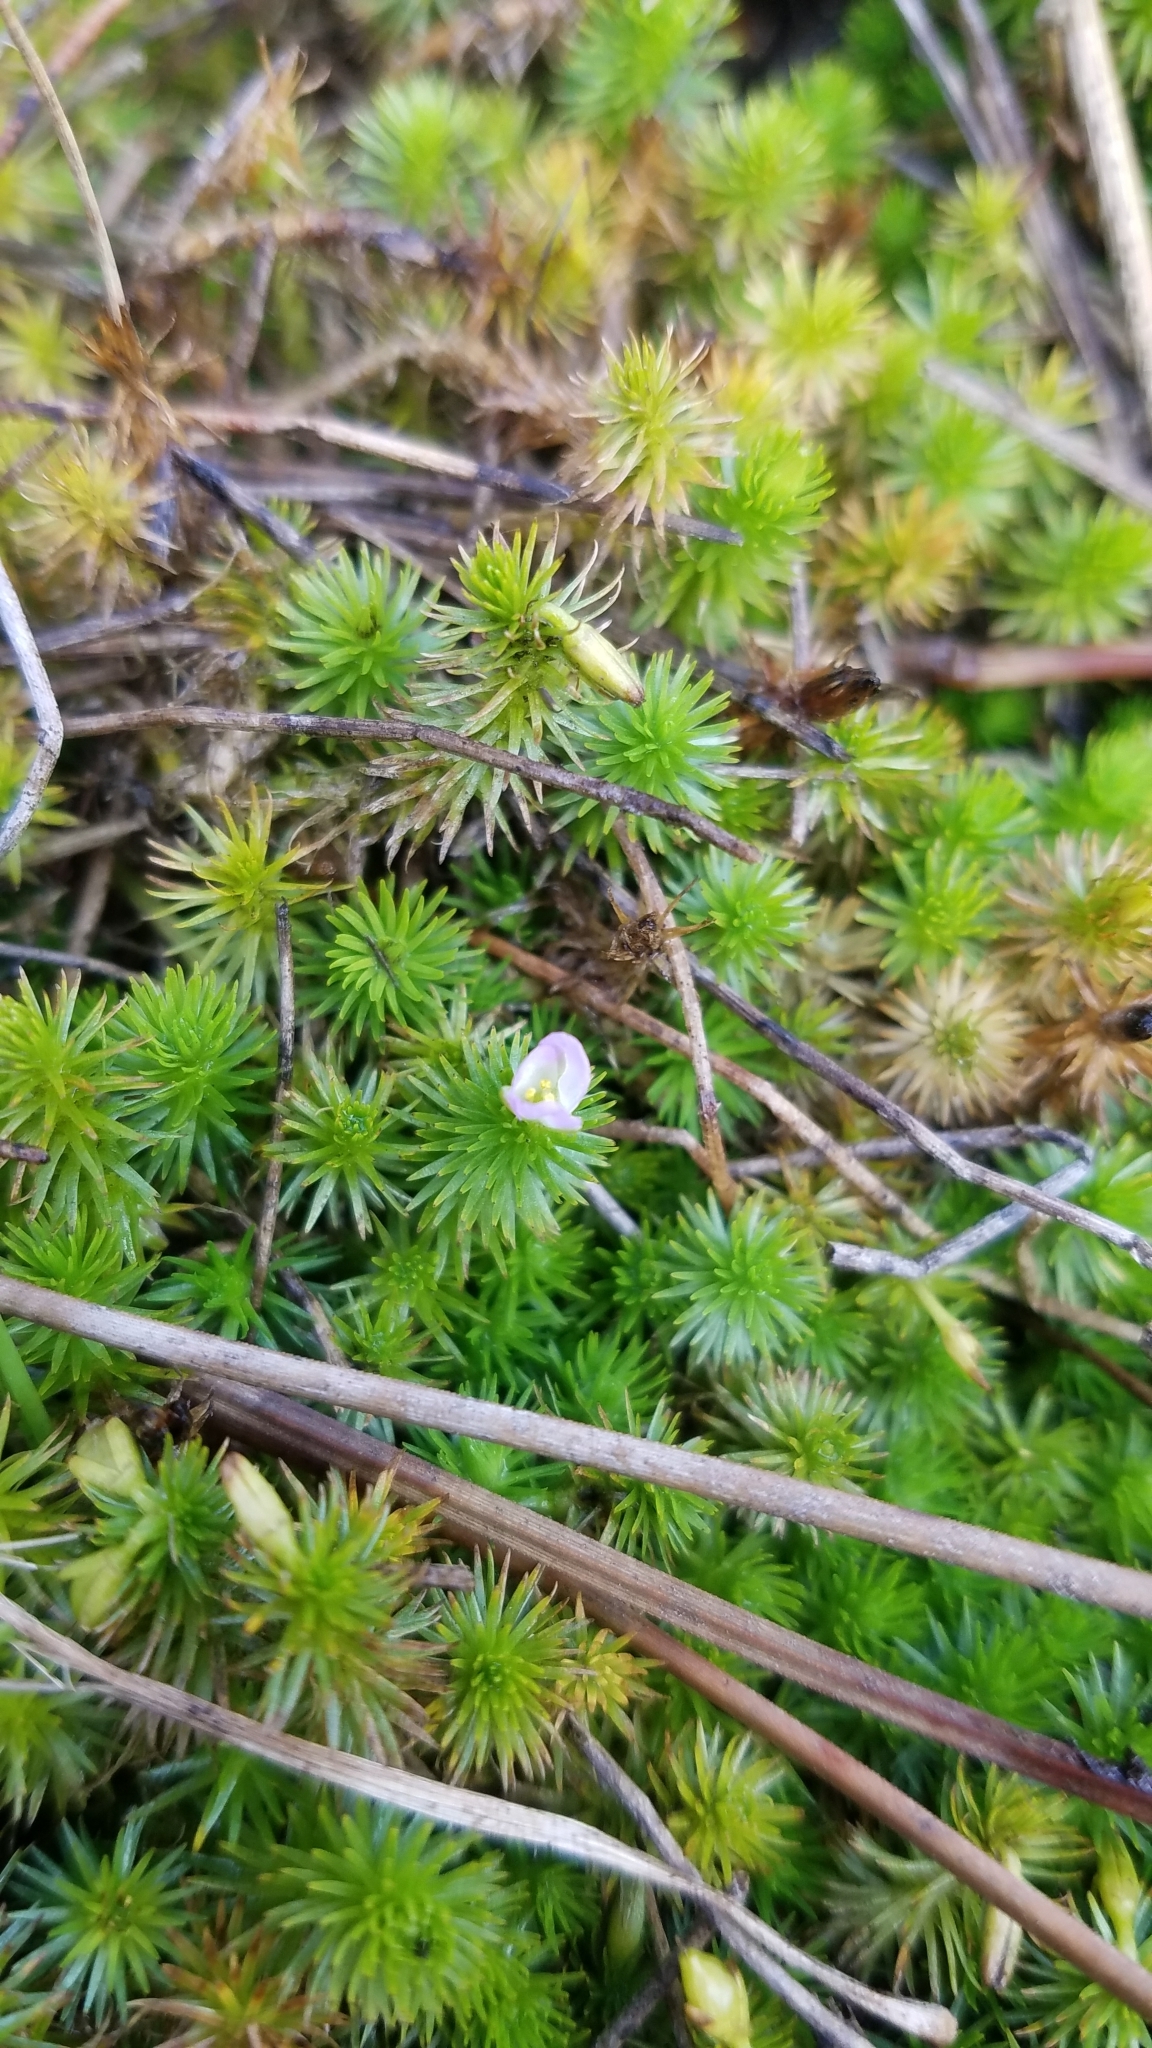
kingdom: Plantae
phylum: Tracheophyta
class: Liliopsida
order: Poales
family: Mayacaceae
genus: Mayaca
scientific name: Mayaca fluviatilis
